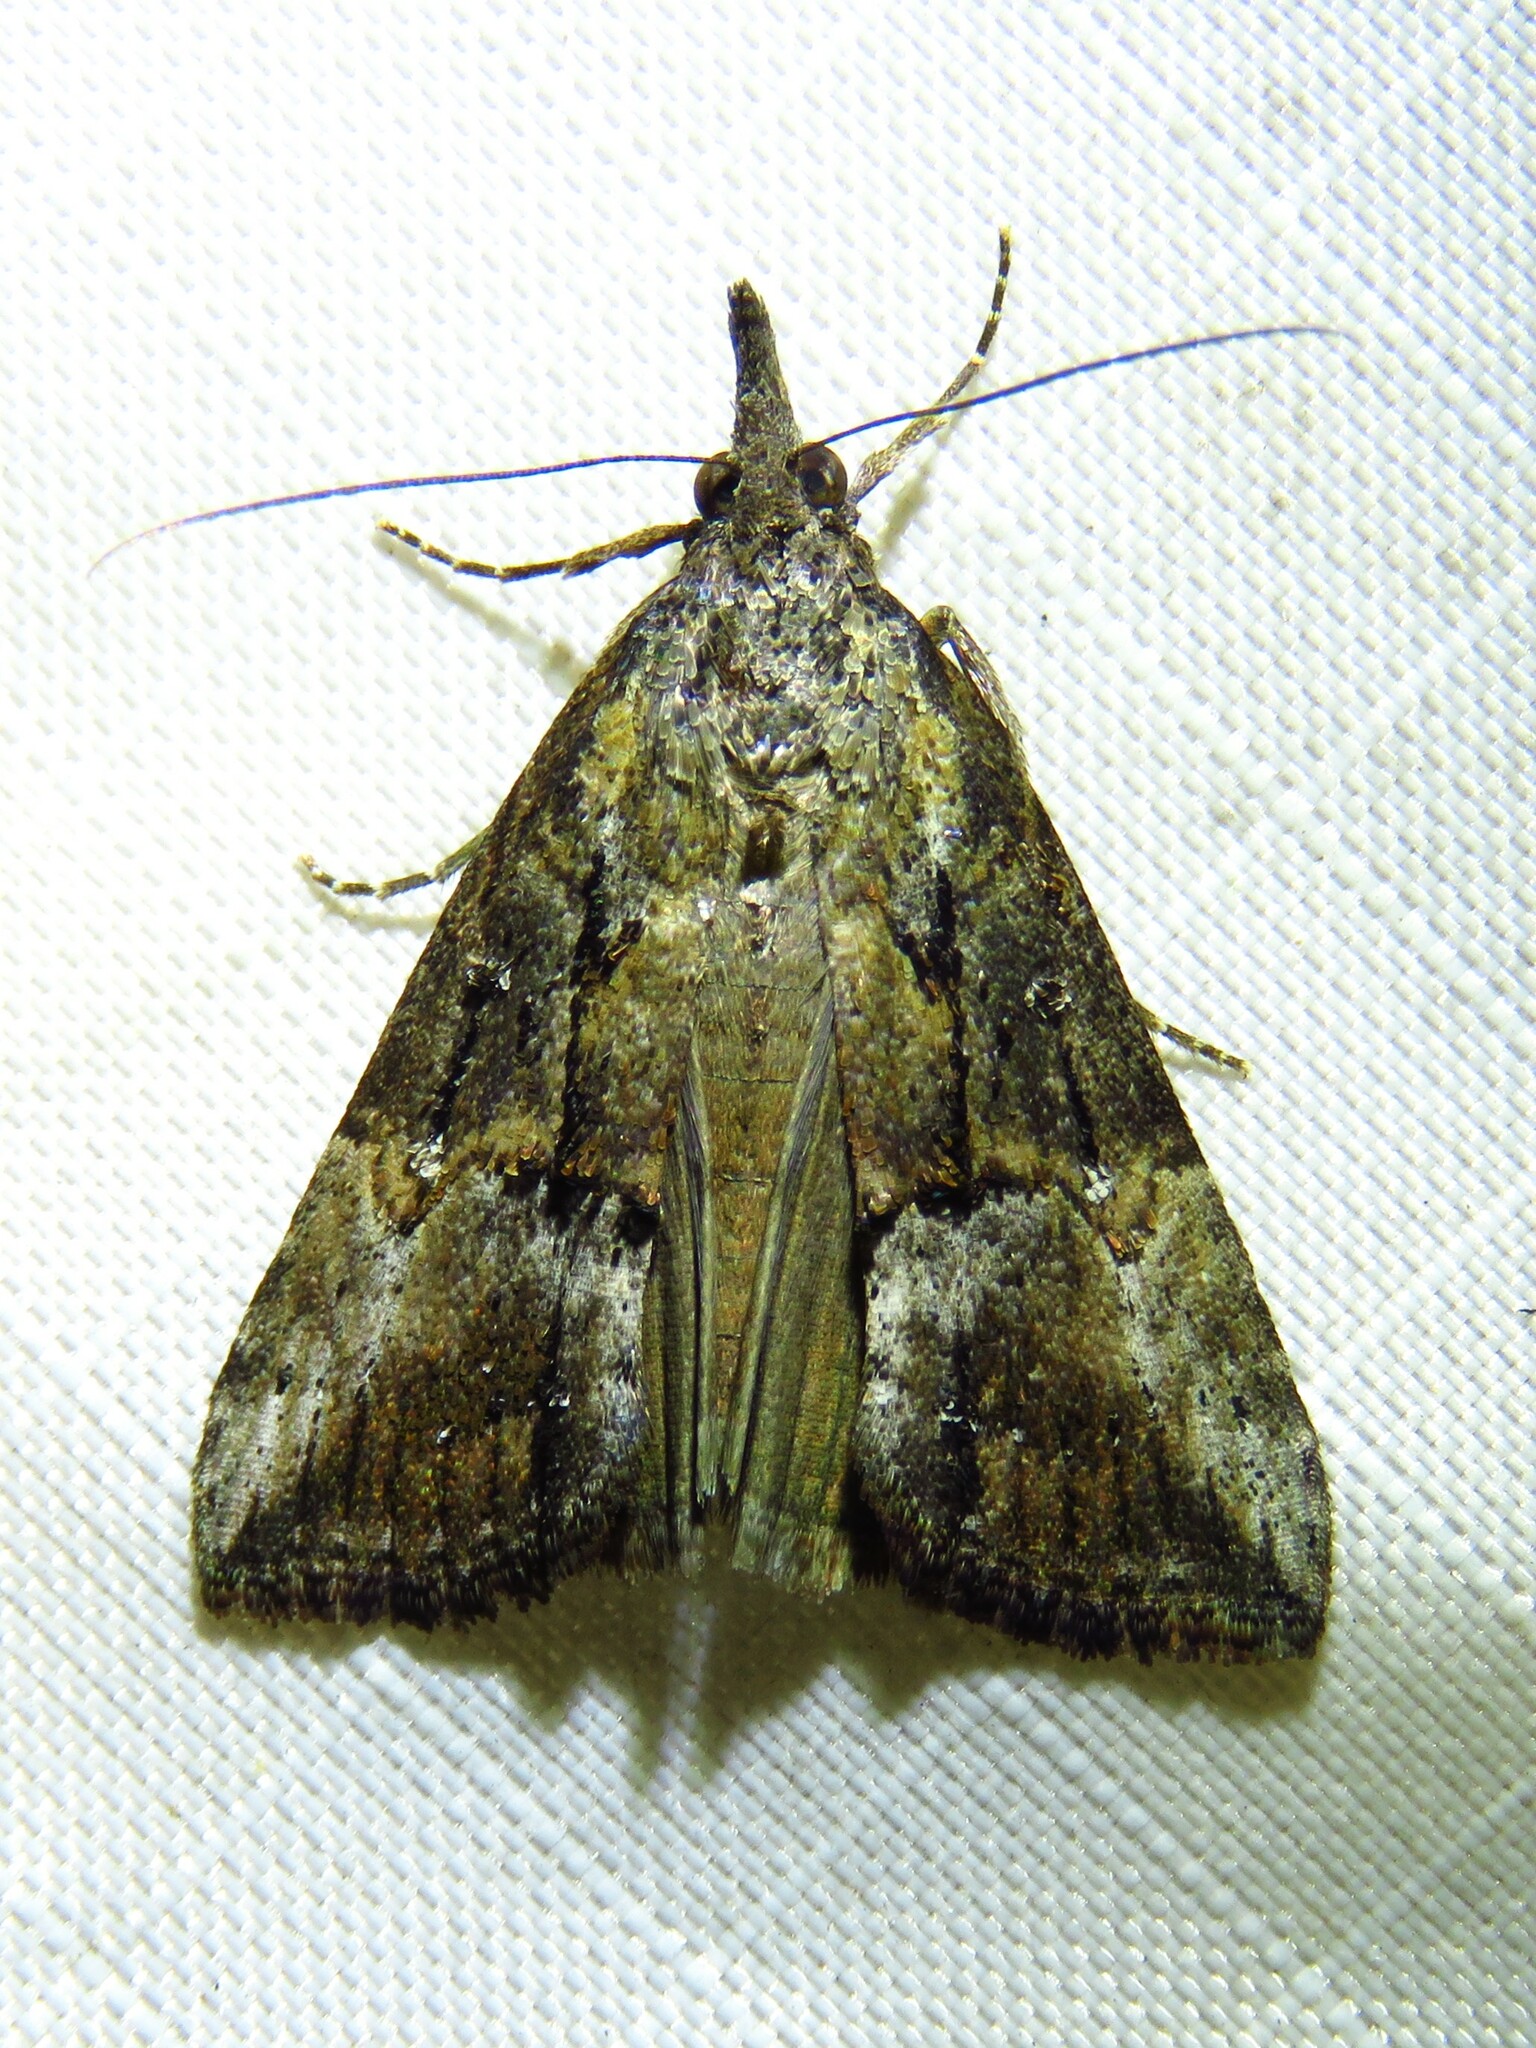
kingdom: Animalia
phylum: Arthropoda
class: Insecta
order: Lepidoptera
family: Erebidae
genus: Hypena
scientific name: Hypena scabra
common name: Green cloverworm
